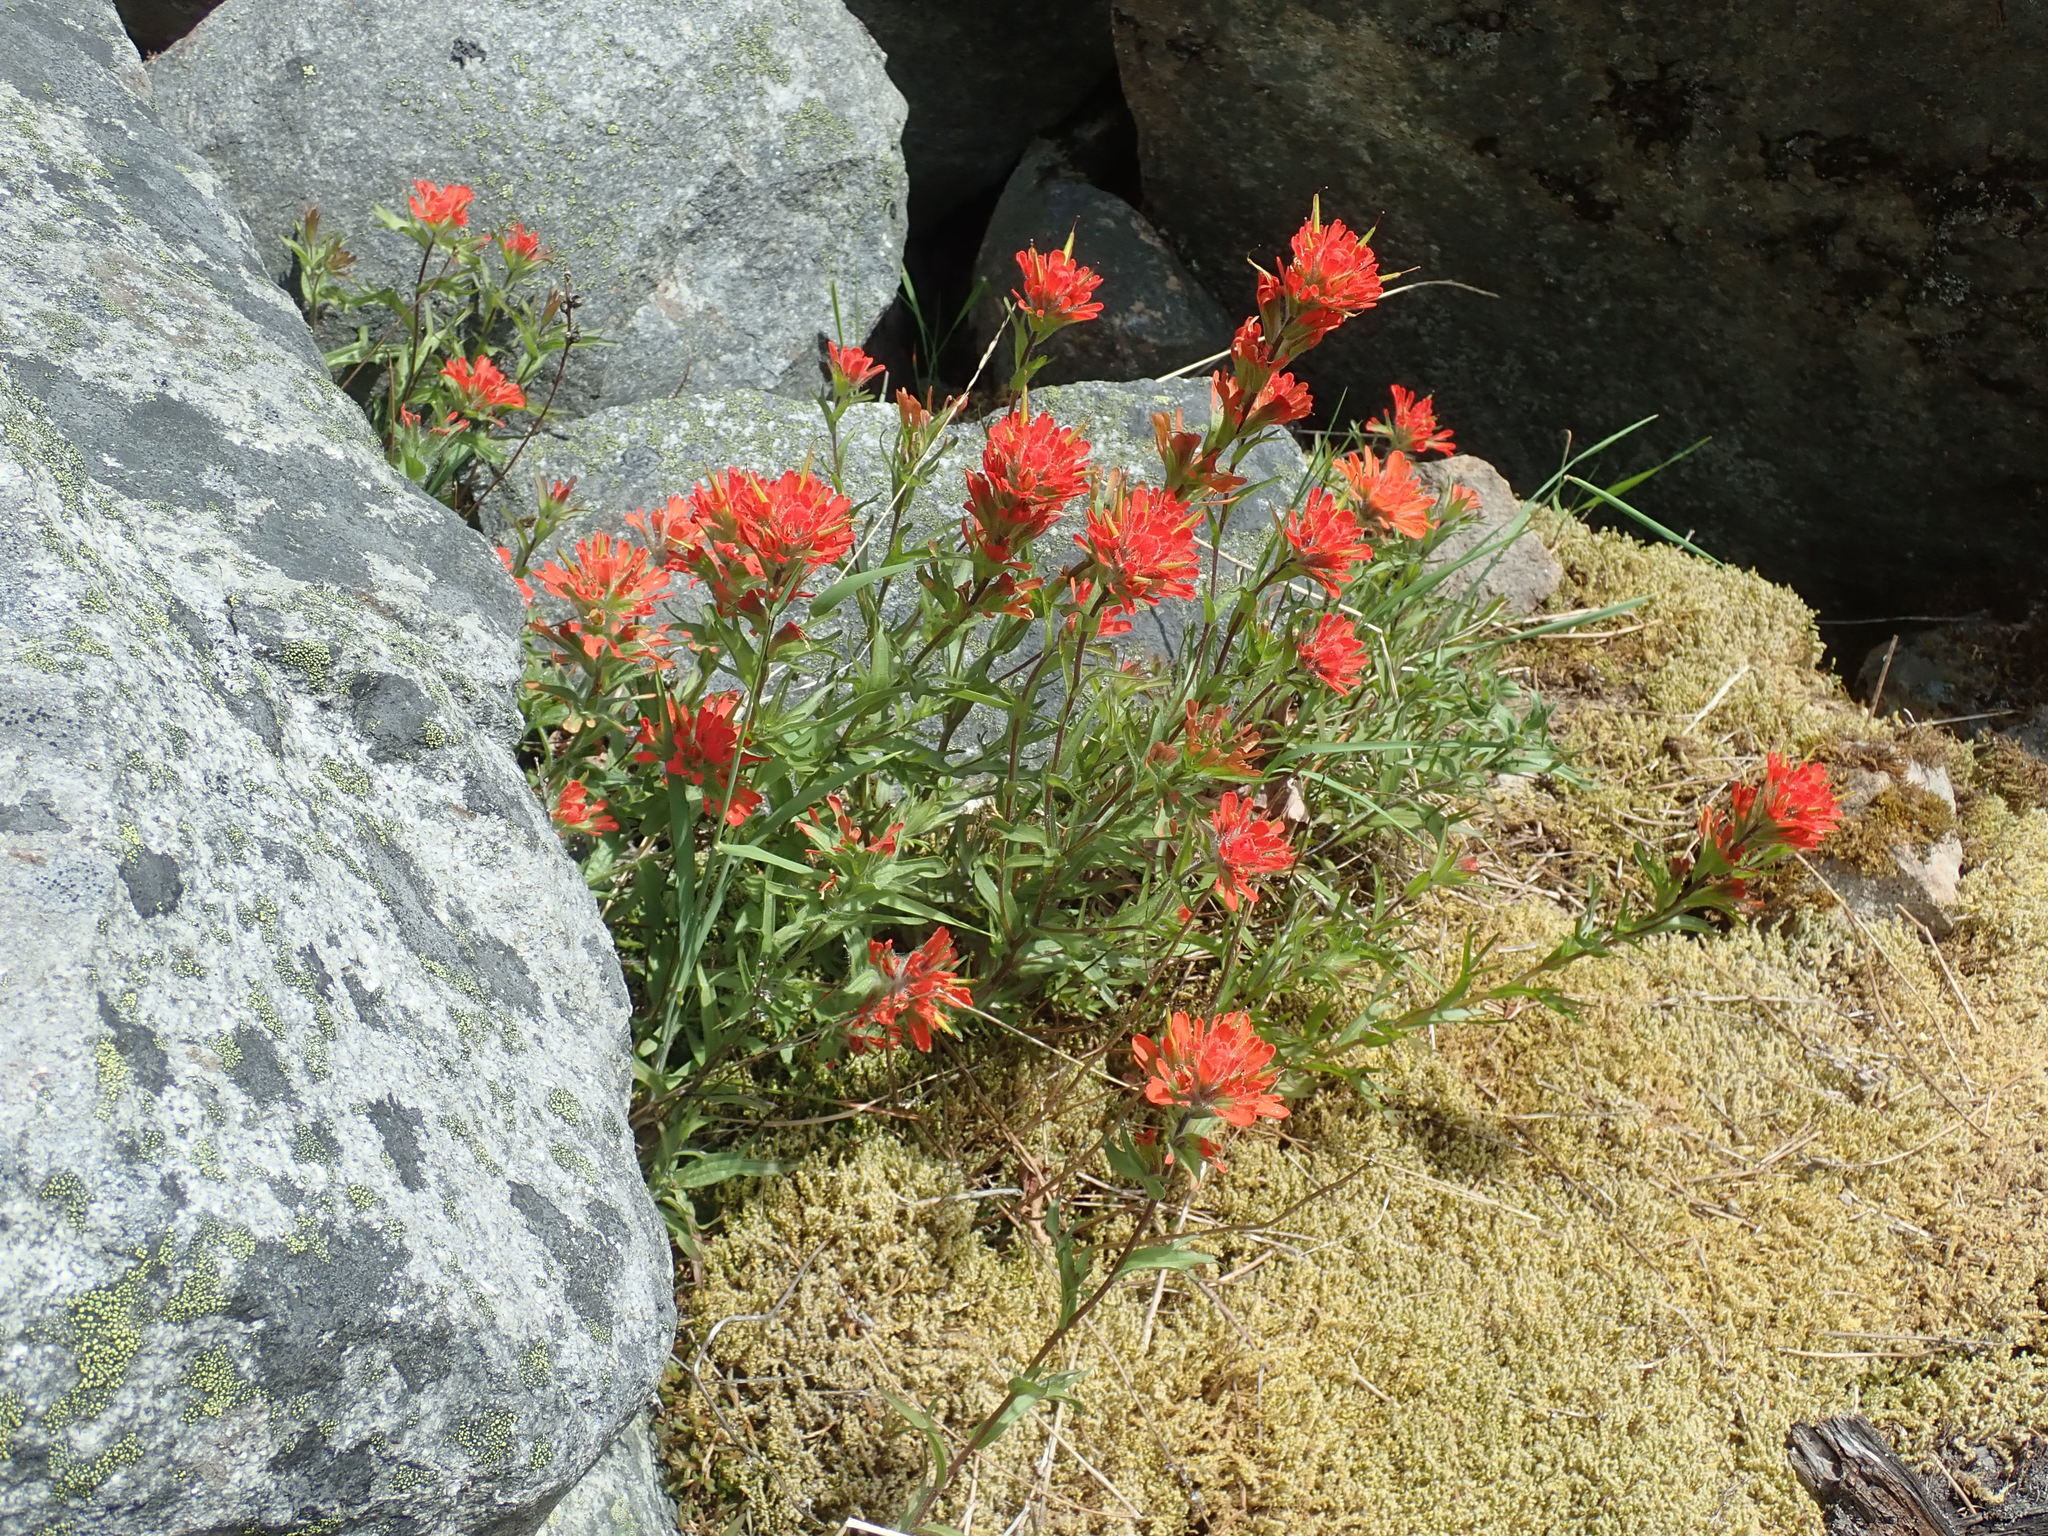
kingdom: Plantae
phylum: Tracheophyta
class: Magnoliopsida
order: Lamiales
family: Orobanchaceae
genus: Castilleja
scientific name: Castilleja hispida
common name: Bristly paintbrush
